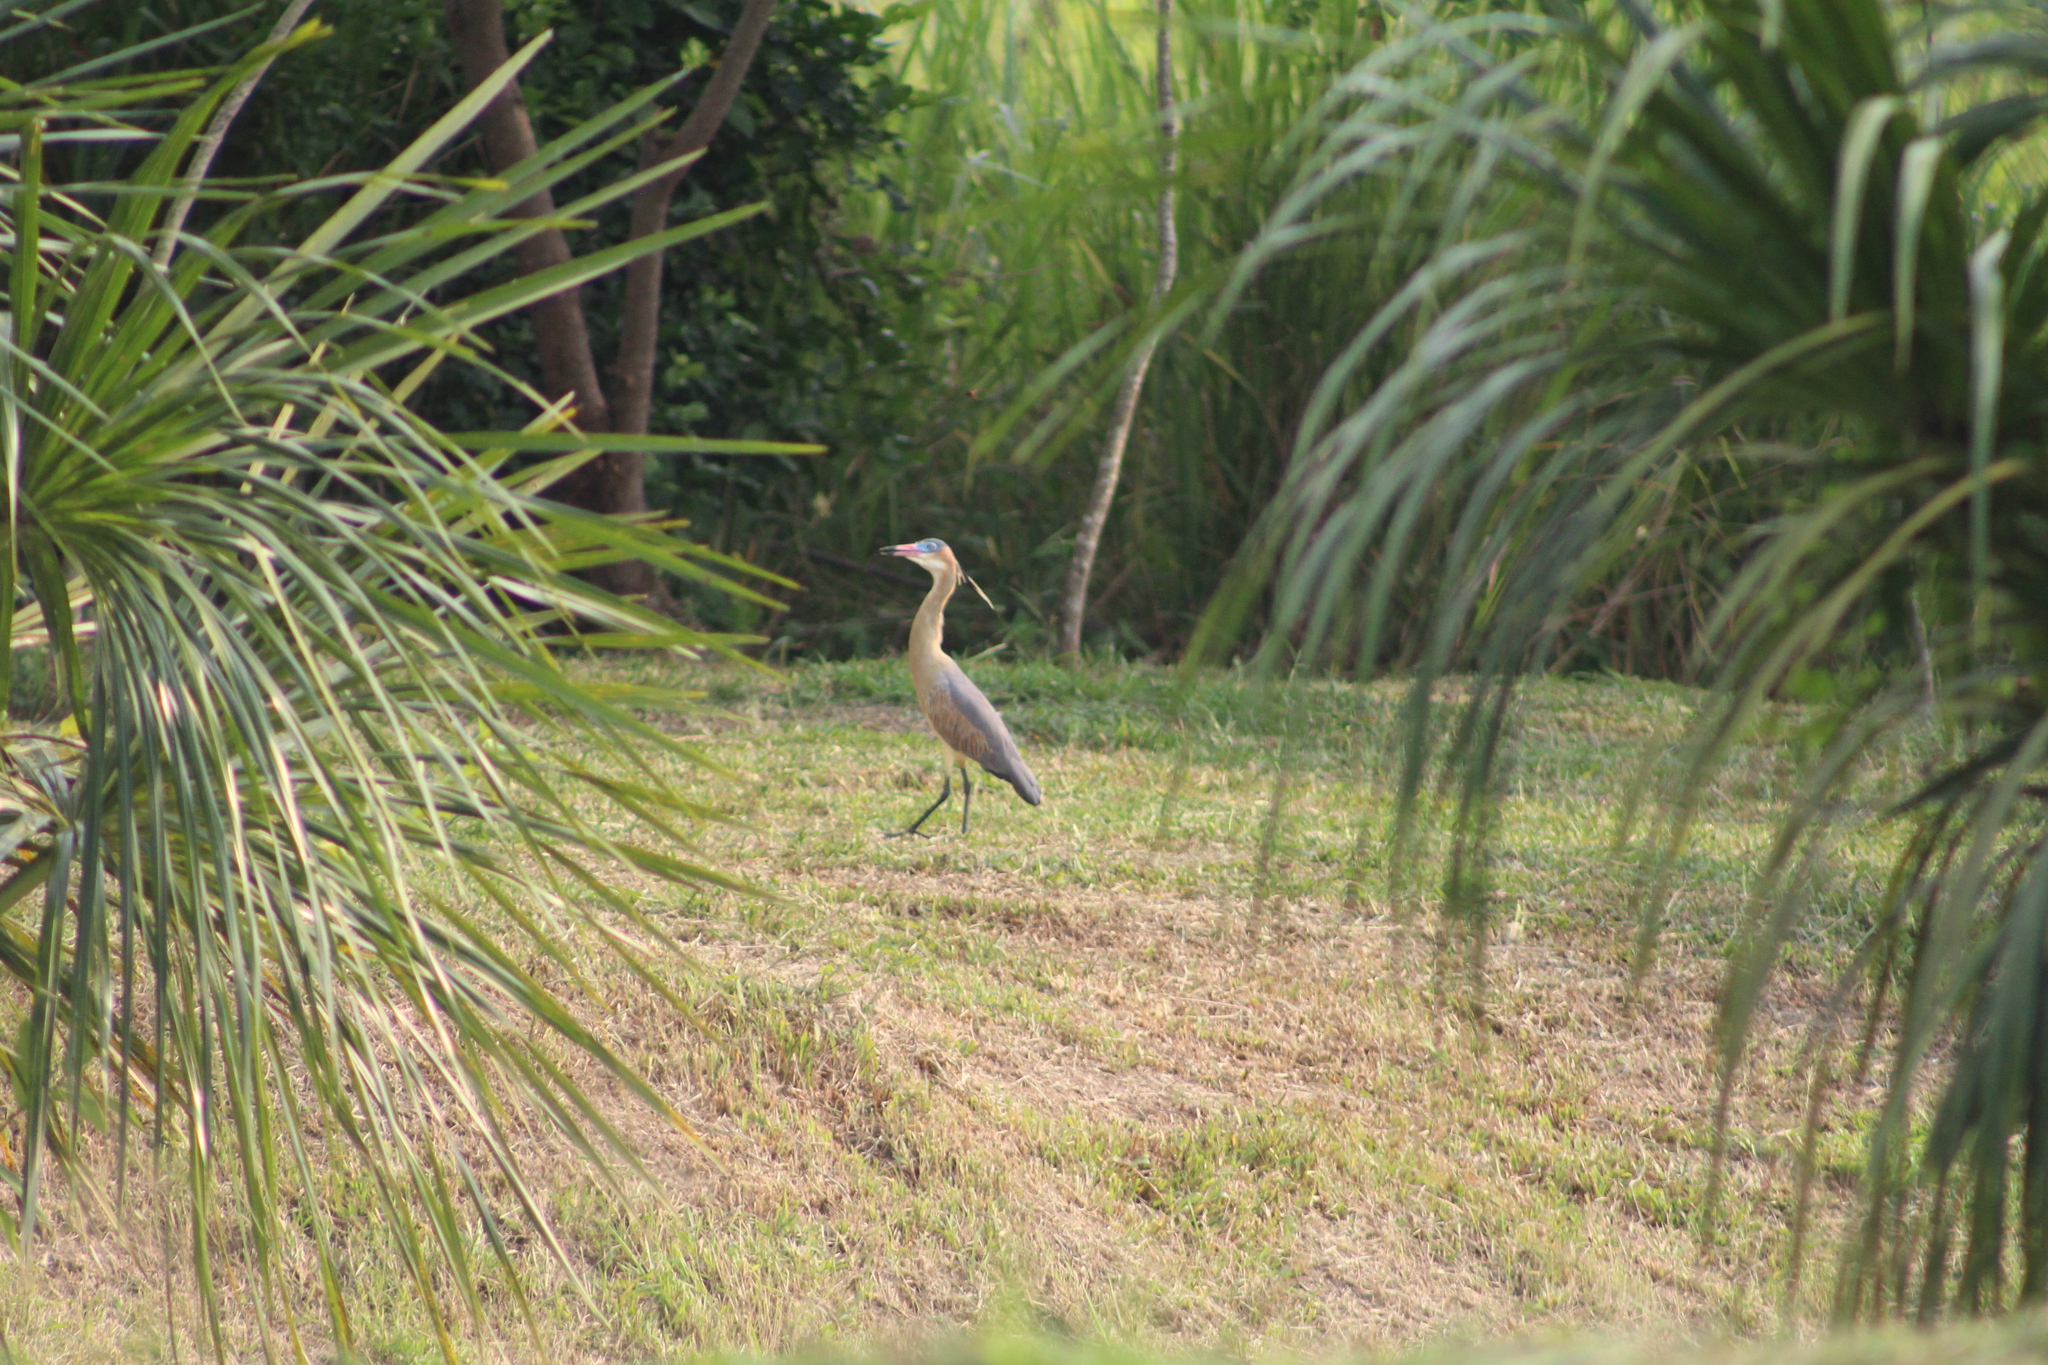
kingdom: Animalia
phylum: Chordata
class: Aves
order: Pelecaniformes
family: Ardeidae
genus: Syrigma
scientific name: Syrigma sibilatrix
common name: Whistling heron
